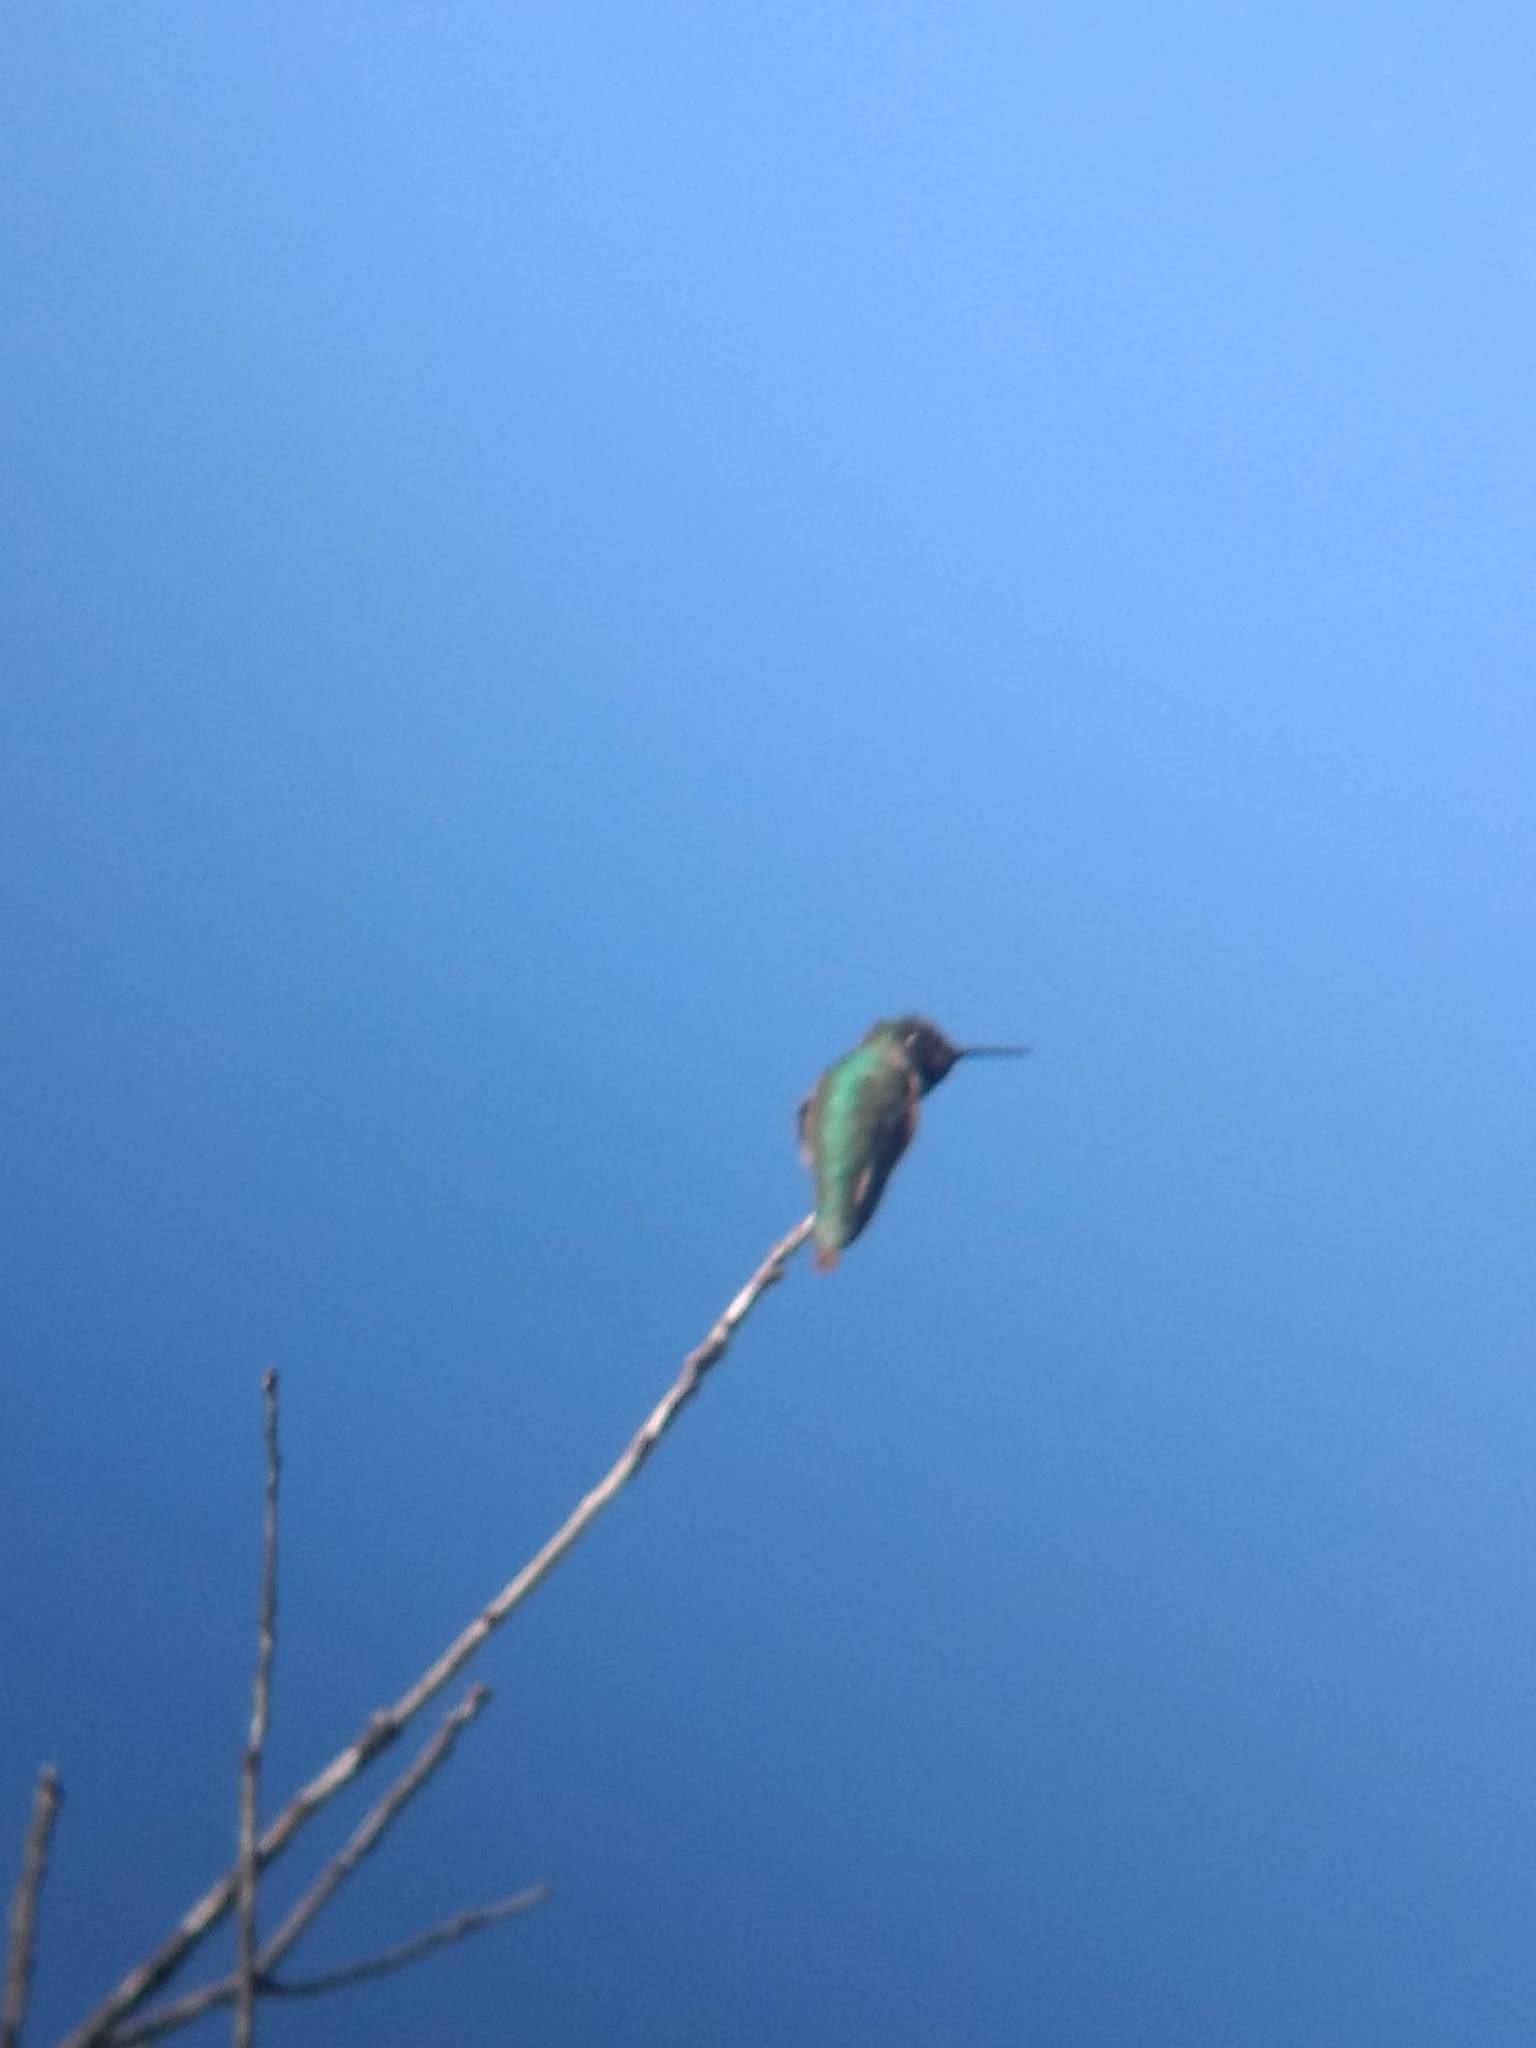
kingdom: Animalia
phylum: Chordata
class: Aves
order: Apodiformes
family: Trochilidae
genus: Calypte
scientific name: Calypte anna
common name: Anna's hummingbird
